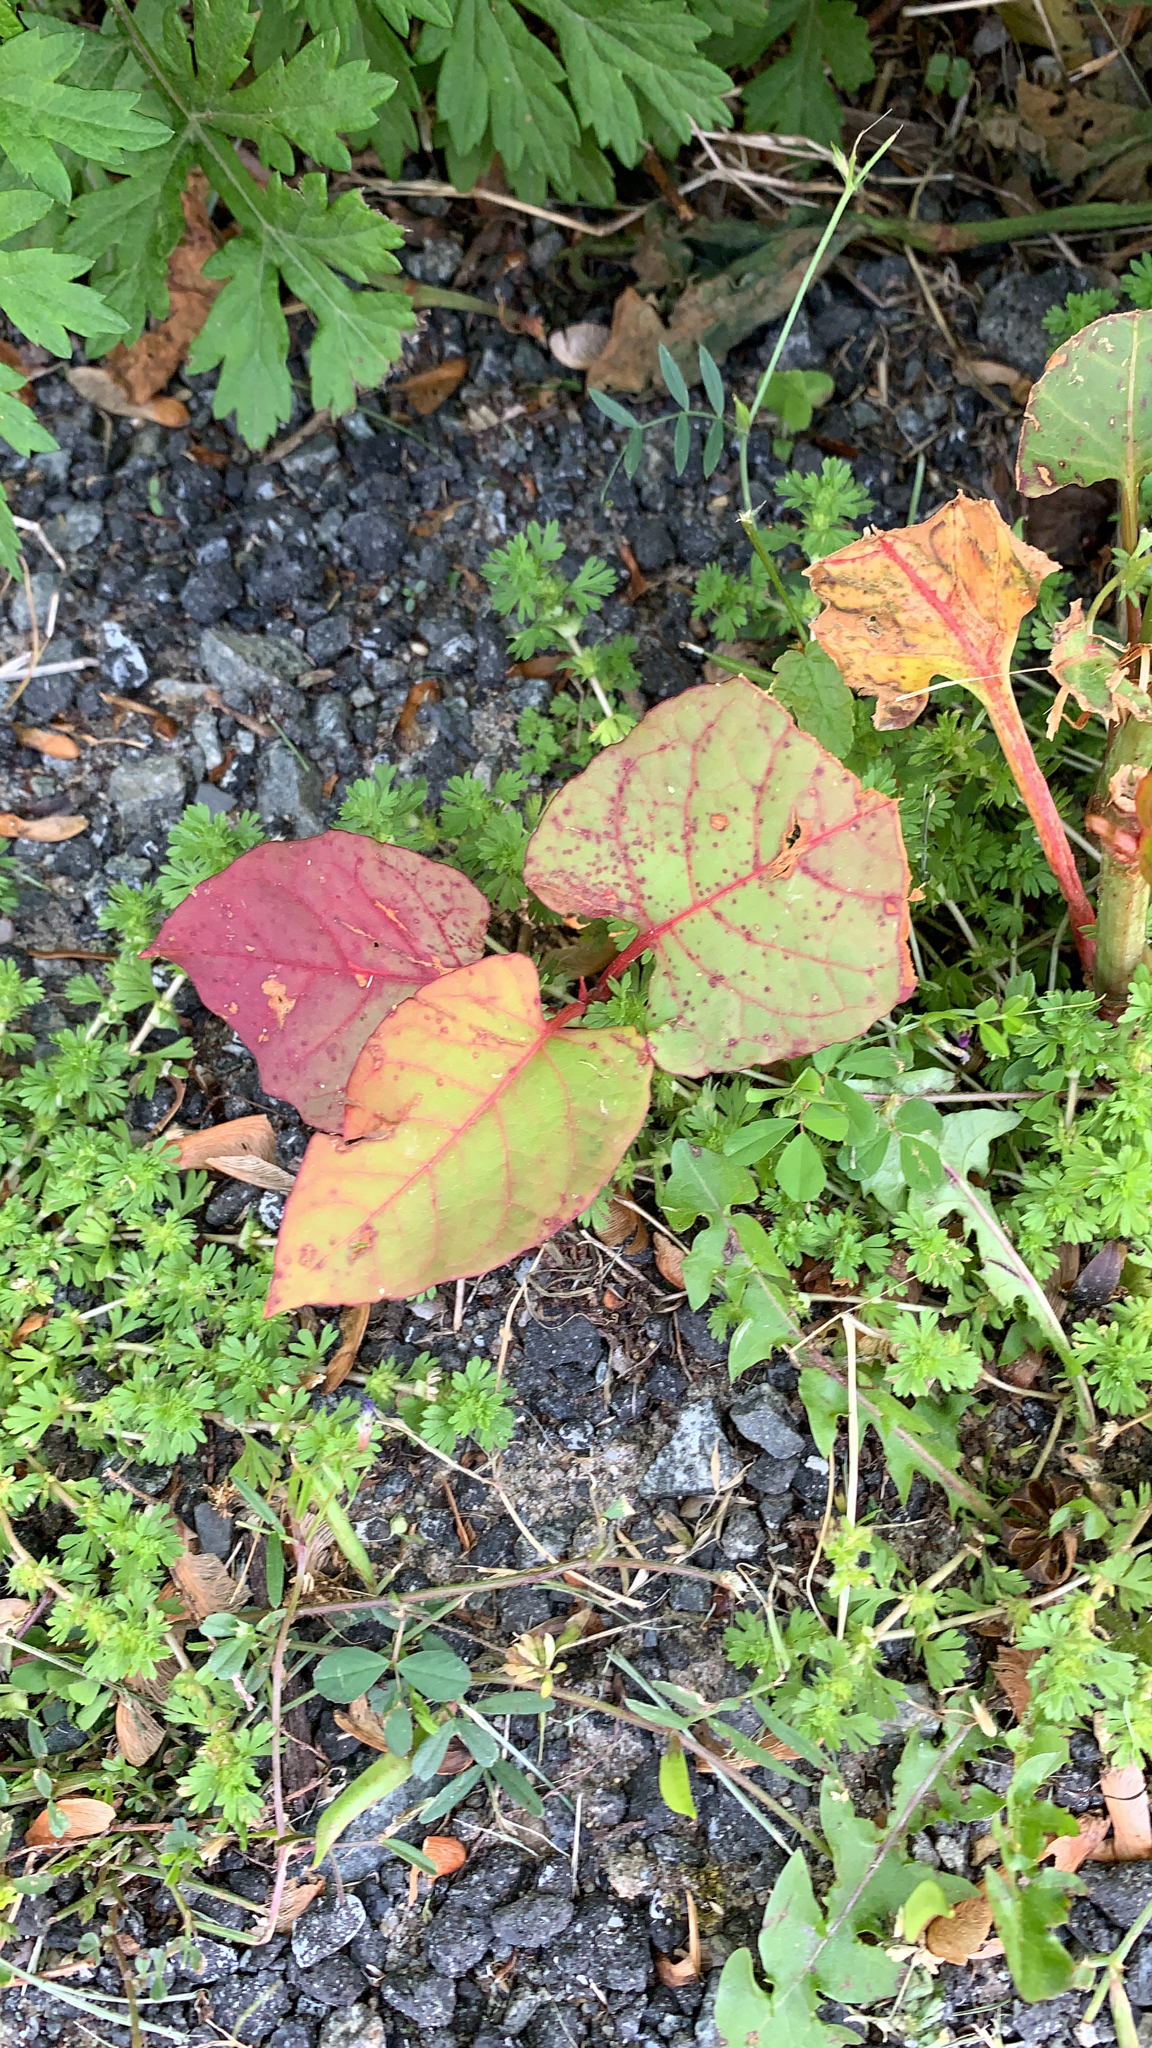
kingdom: Plantae
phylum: Tracheophyta
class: Magnoliopsida
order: Caryophyllales
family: Polygonaceae
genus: Reynoutria
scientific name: Reynoutria japonica
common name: Japanese knotweed
